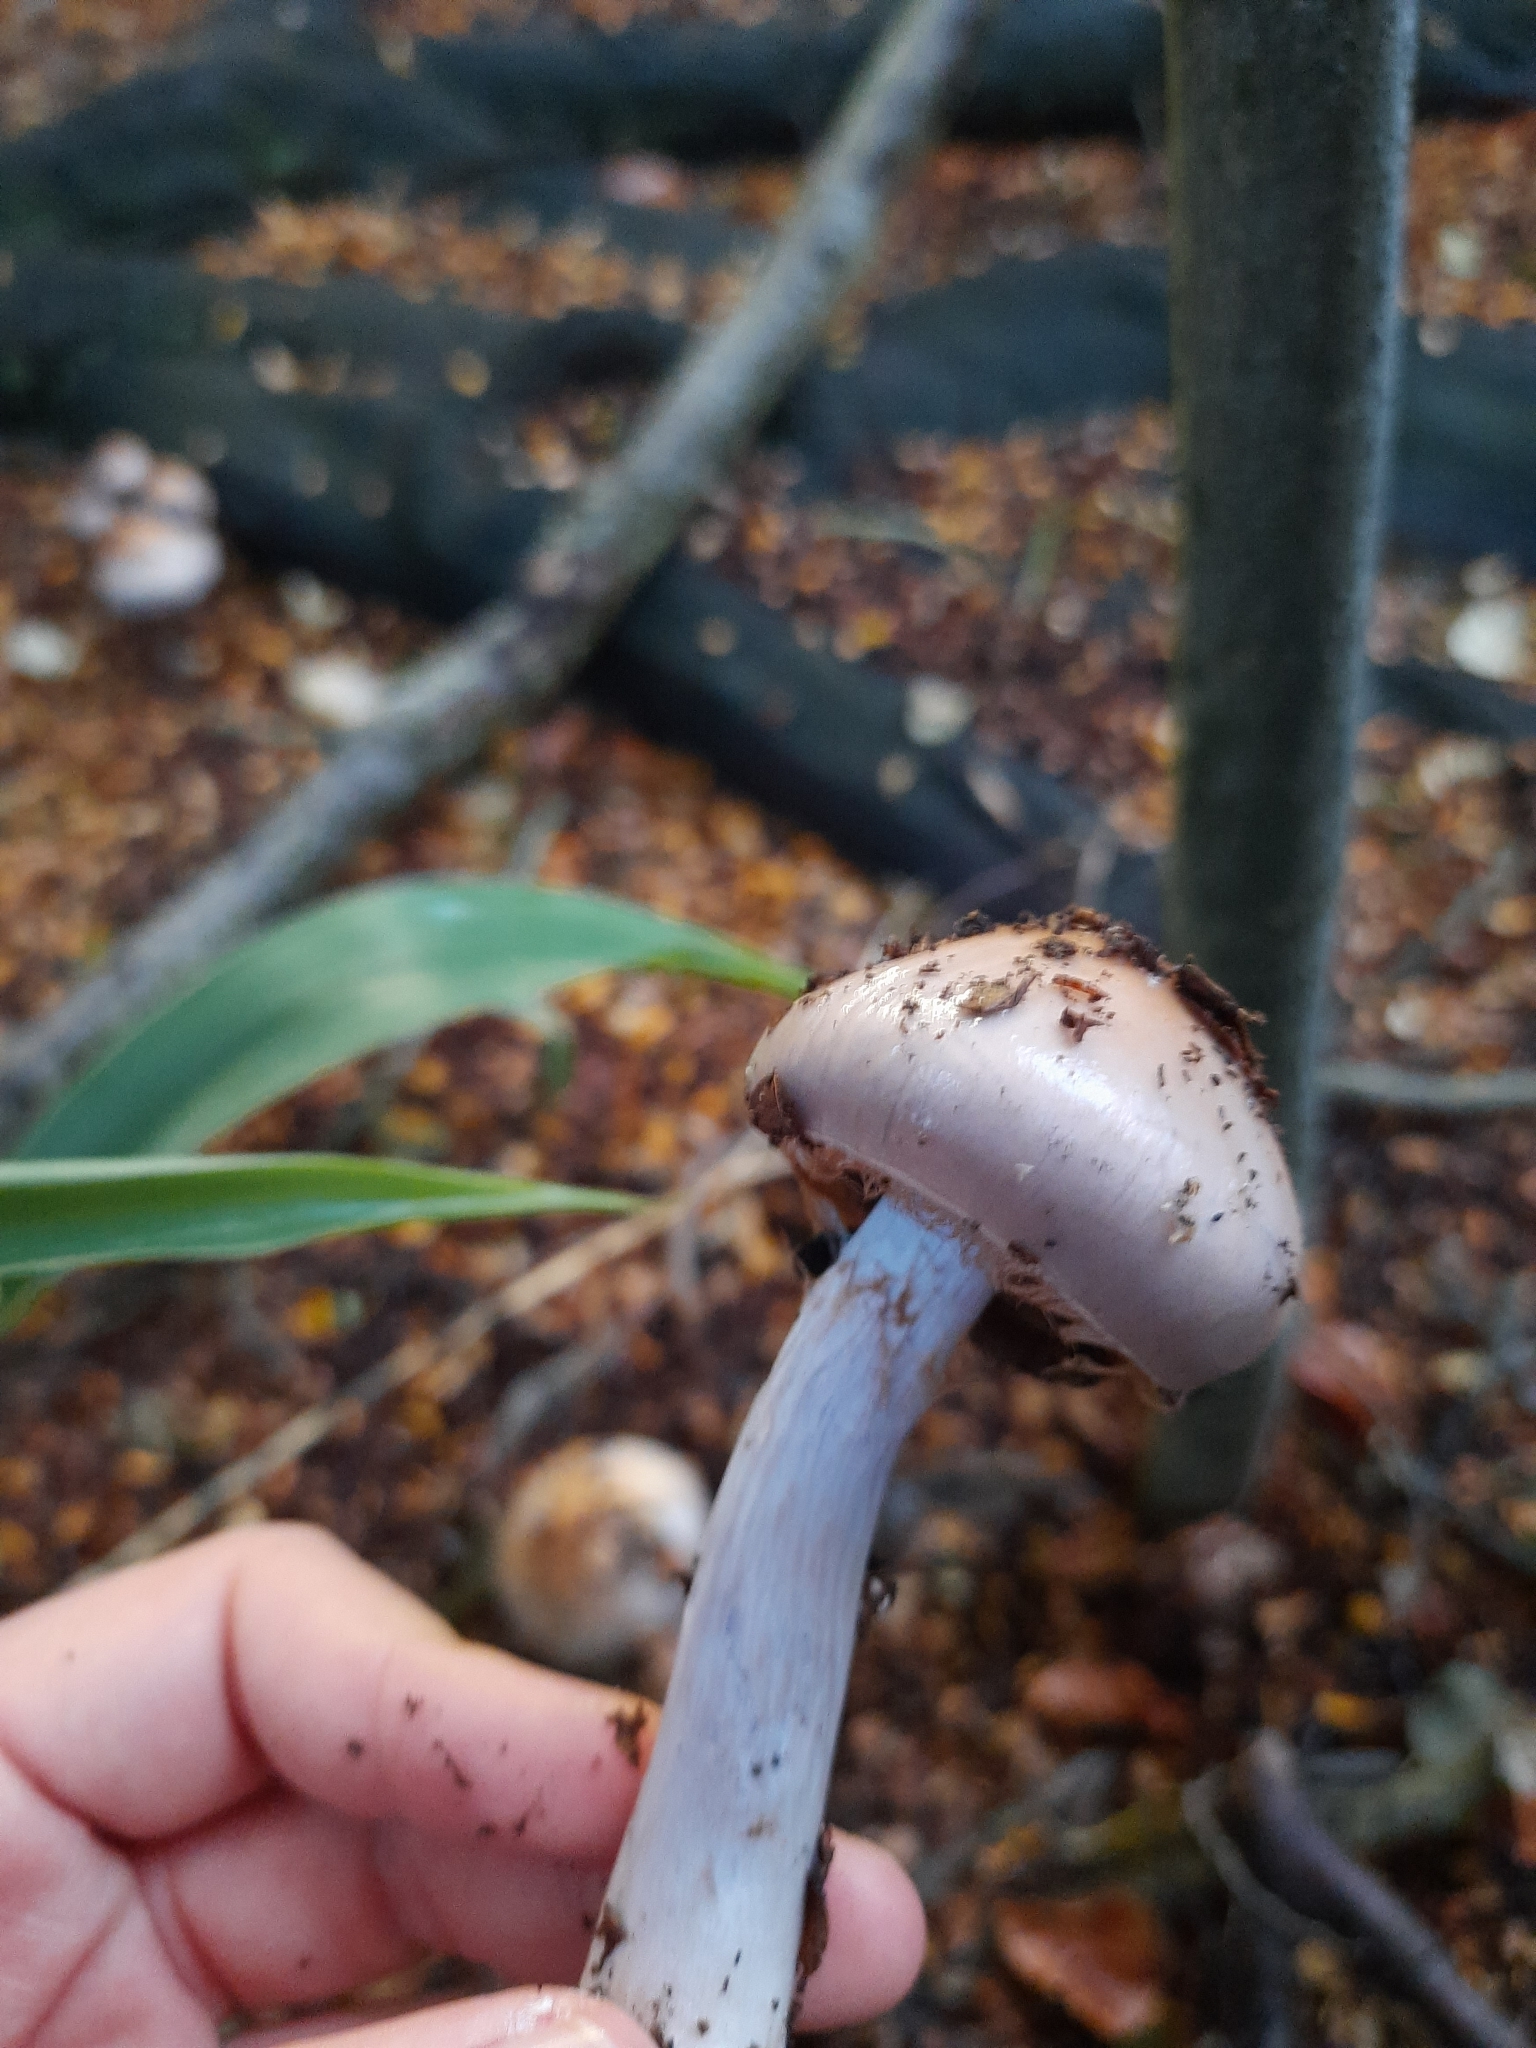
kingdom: Fungi
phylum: Basidiomycota
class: Agaricomycetes
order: Agaricales
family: Cortinariaceae
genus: Cortinarius
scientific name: Cortinarius taylorianus
